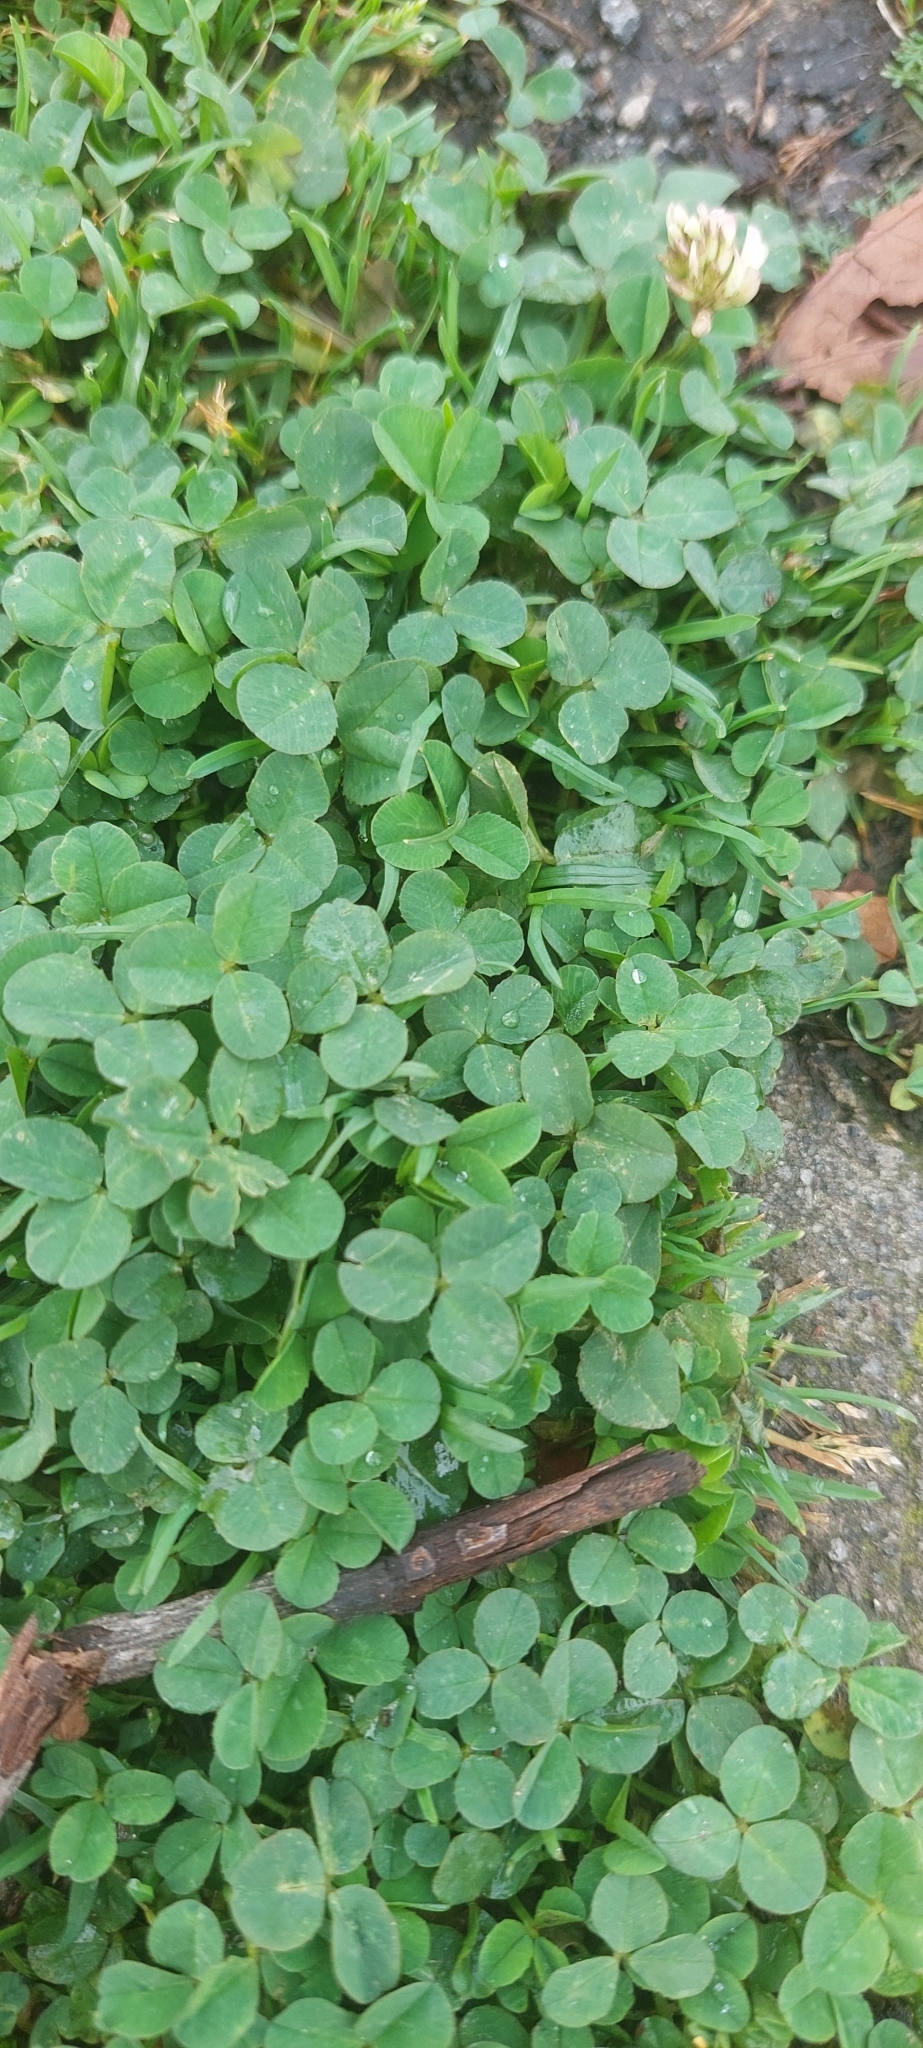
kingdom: Plantae
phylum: Tracheophyta
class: Magnoliopsida
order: Fabales
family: Fabaceae
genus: Trifolium
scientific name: Trifolium repens
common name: White clover
